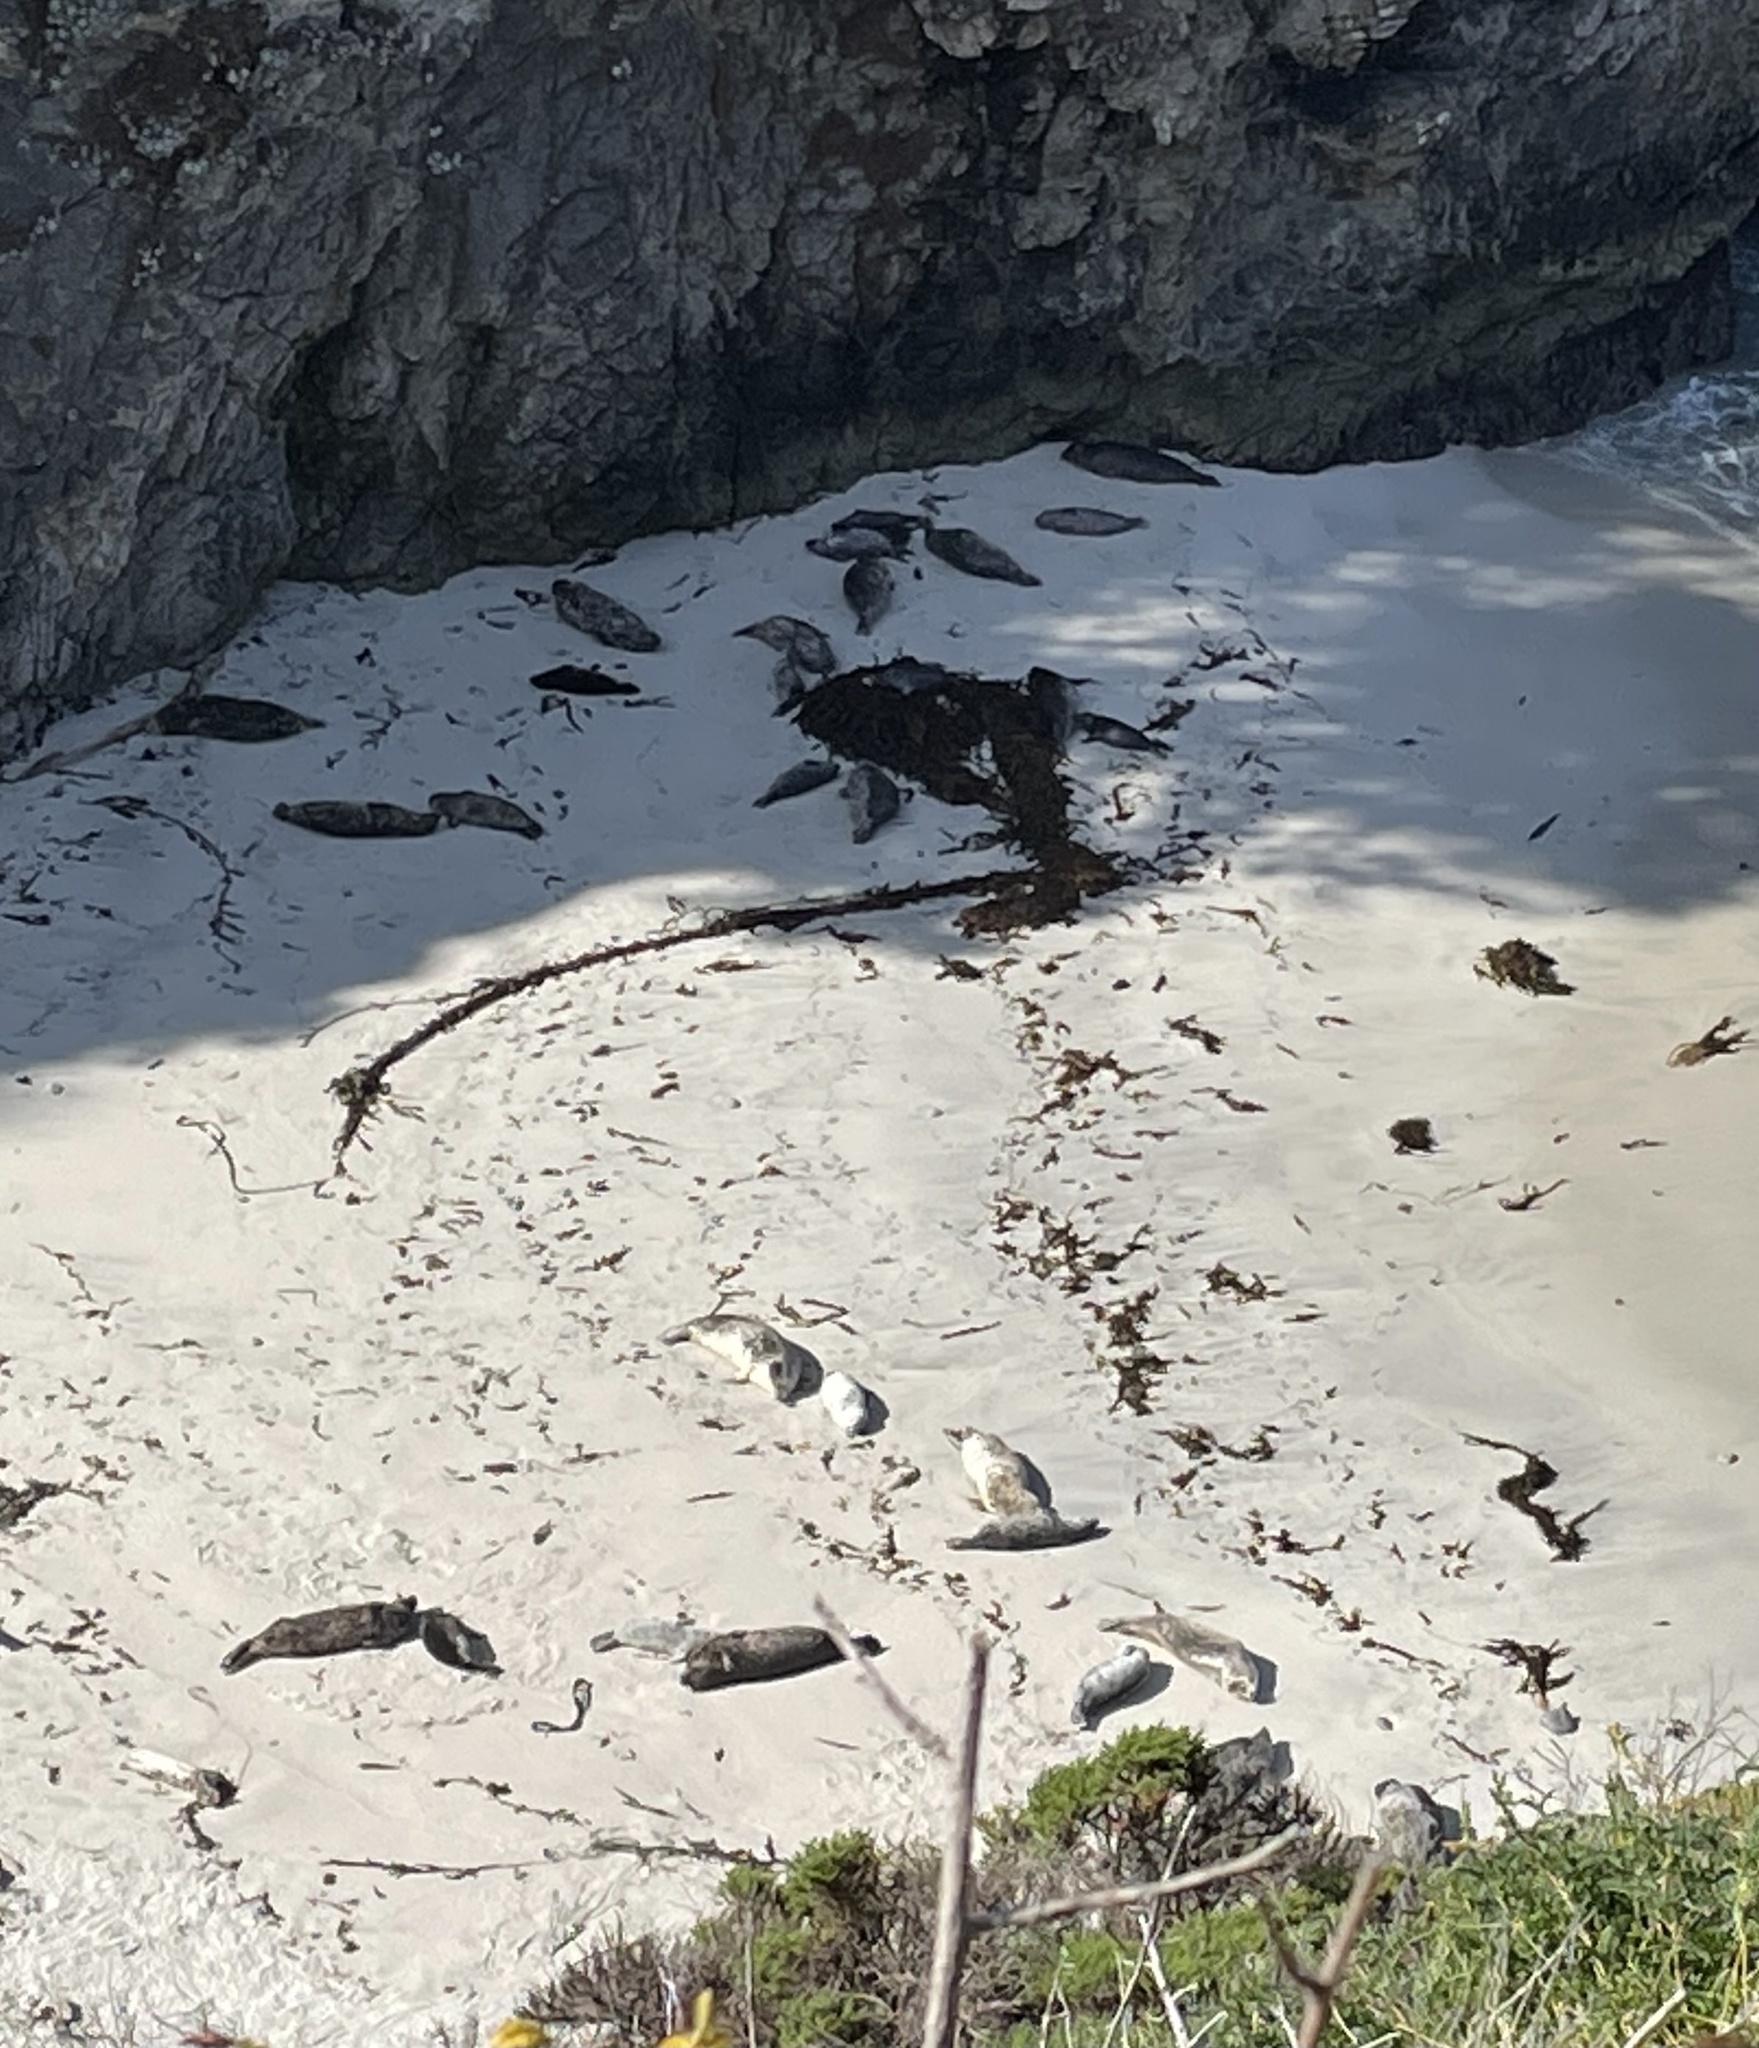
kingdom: Animalia
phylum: Chordata
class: Mammalia
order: Carnivora
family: Phocidae
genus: Phoca
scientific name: Phoca vitulina
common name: Harbor seal
